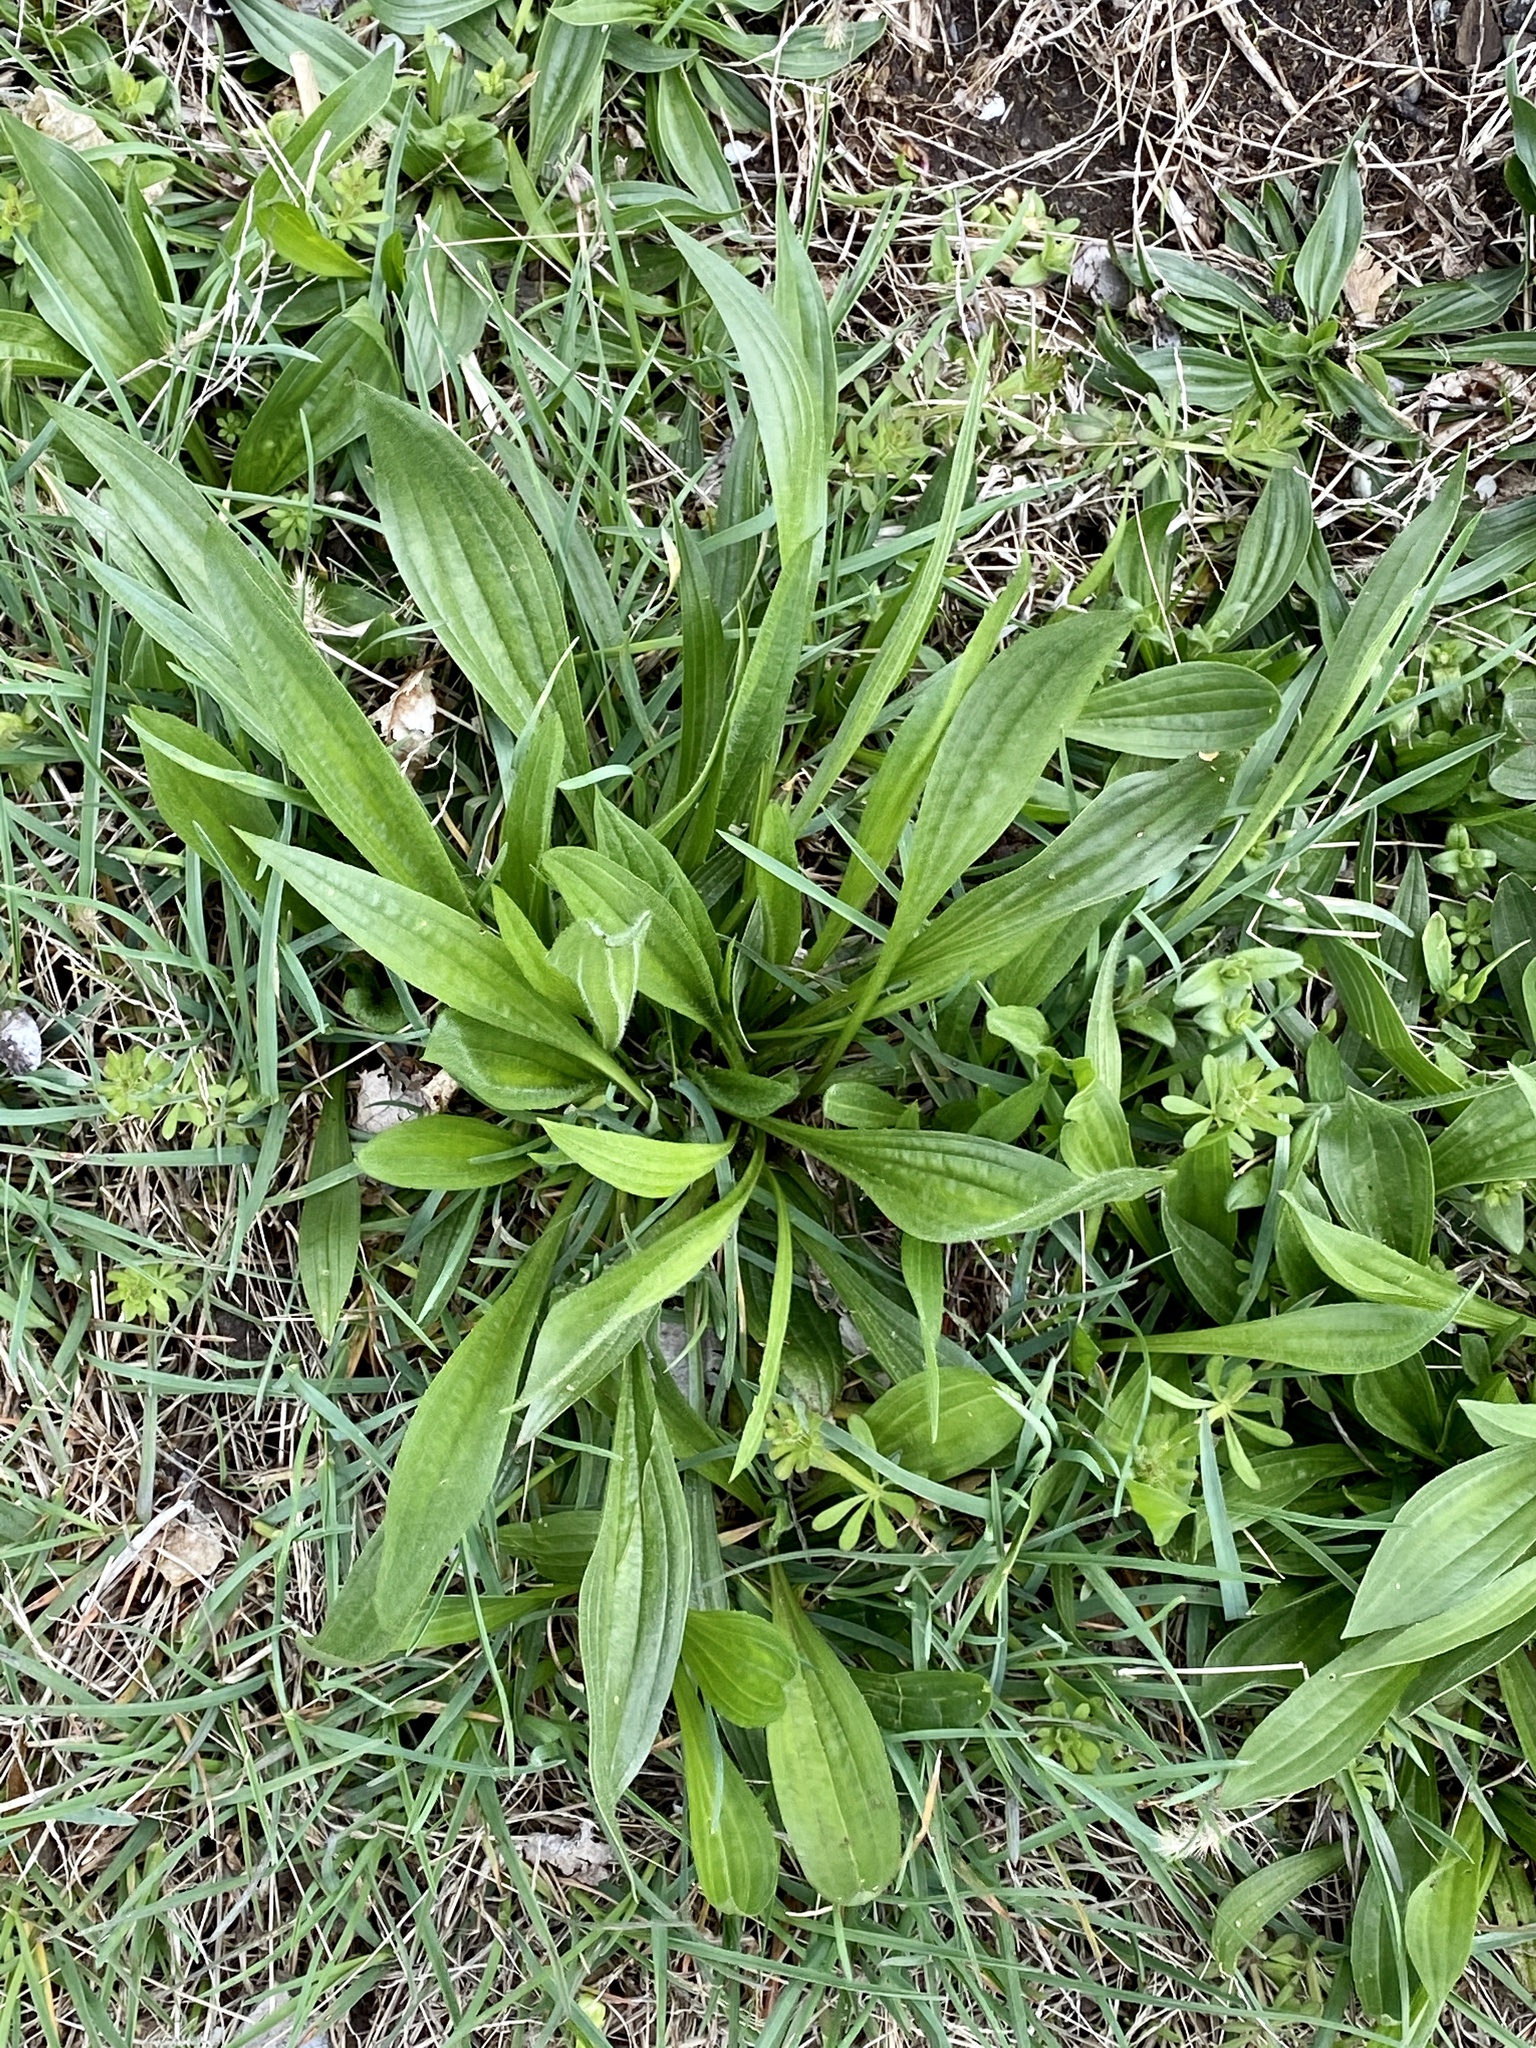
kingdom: Plantae
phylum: Tracheophyta
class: Magnoliopsida
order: Lamiales
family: Plantaginaceae
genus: Plantago
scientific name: Plantago lanceolata
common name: Ribwort plantain
